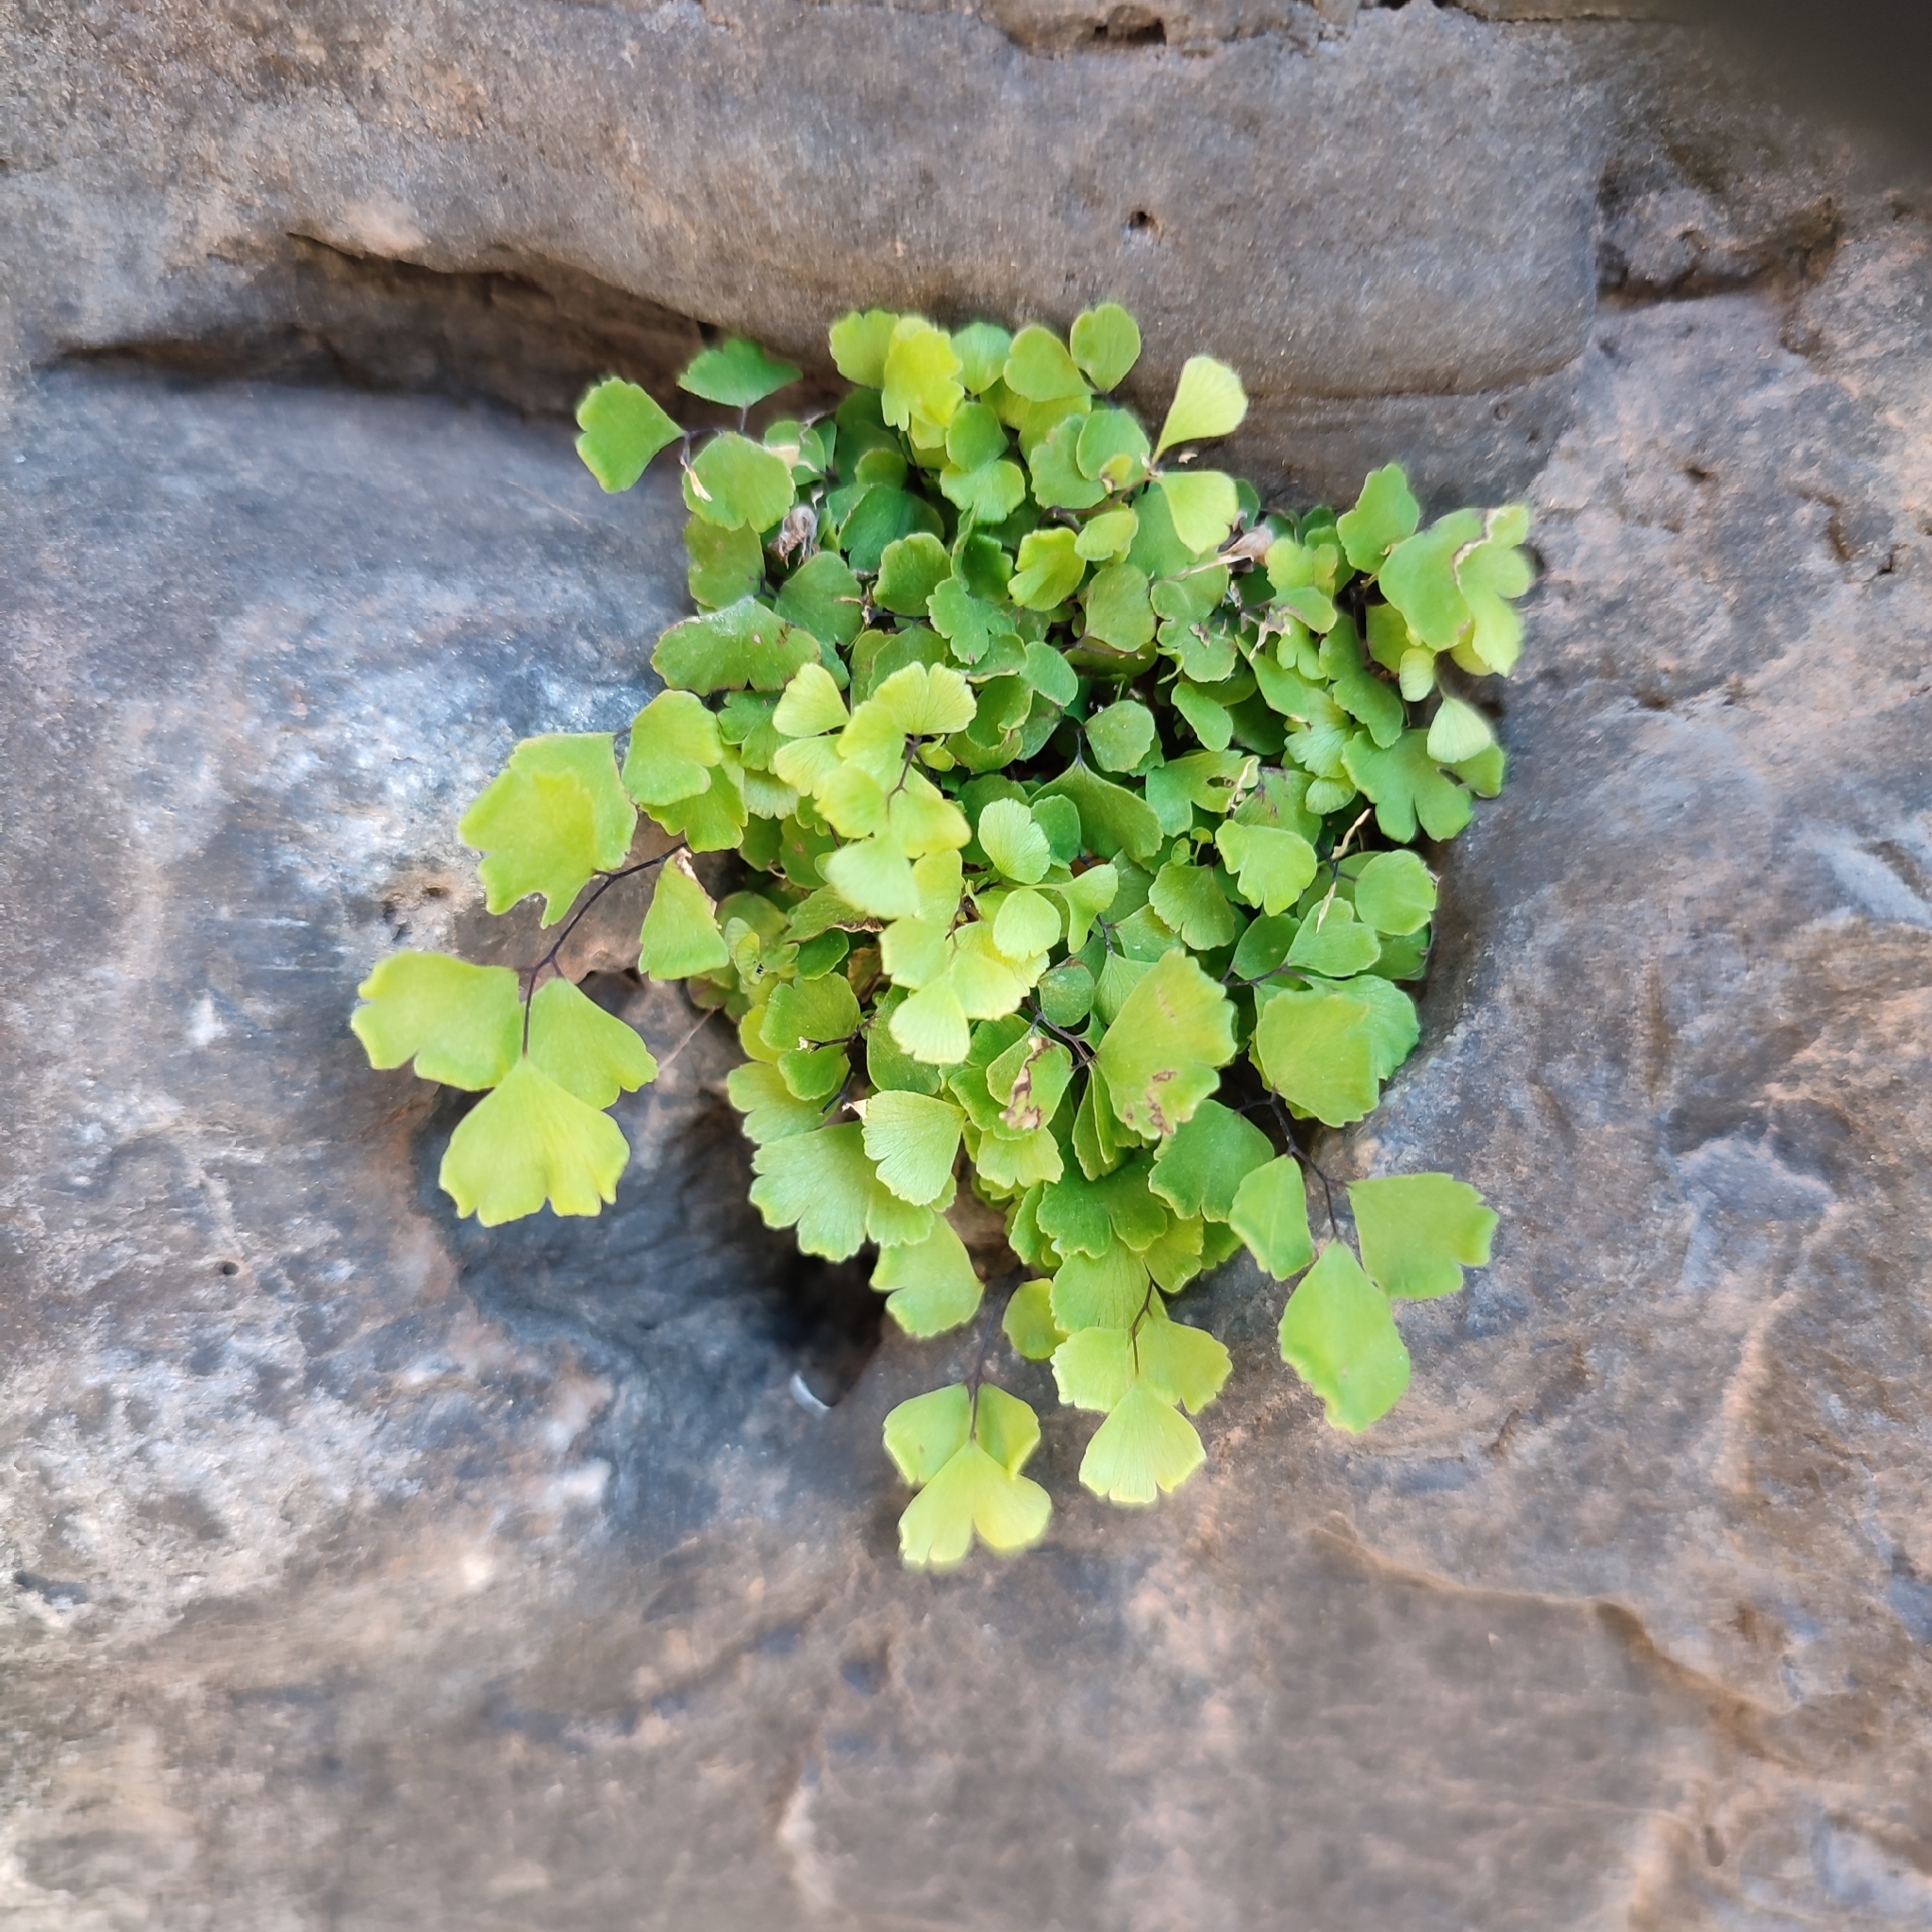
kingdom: Plantae
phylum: Tracheophyta
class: Polypodiopsida
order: Polypodiales
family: Pteridaceae
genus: Adiantum
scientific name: Adiantum capillus-veneris
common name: Maidenhair fern
